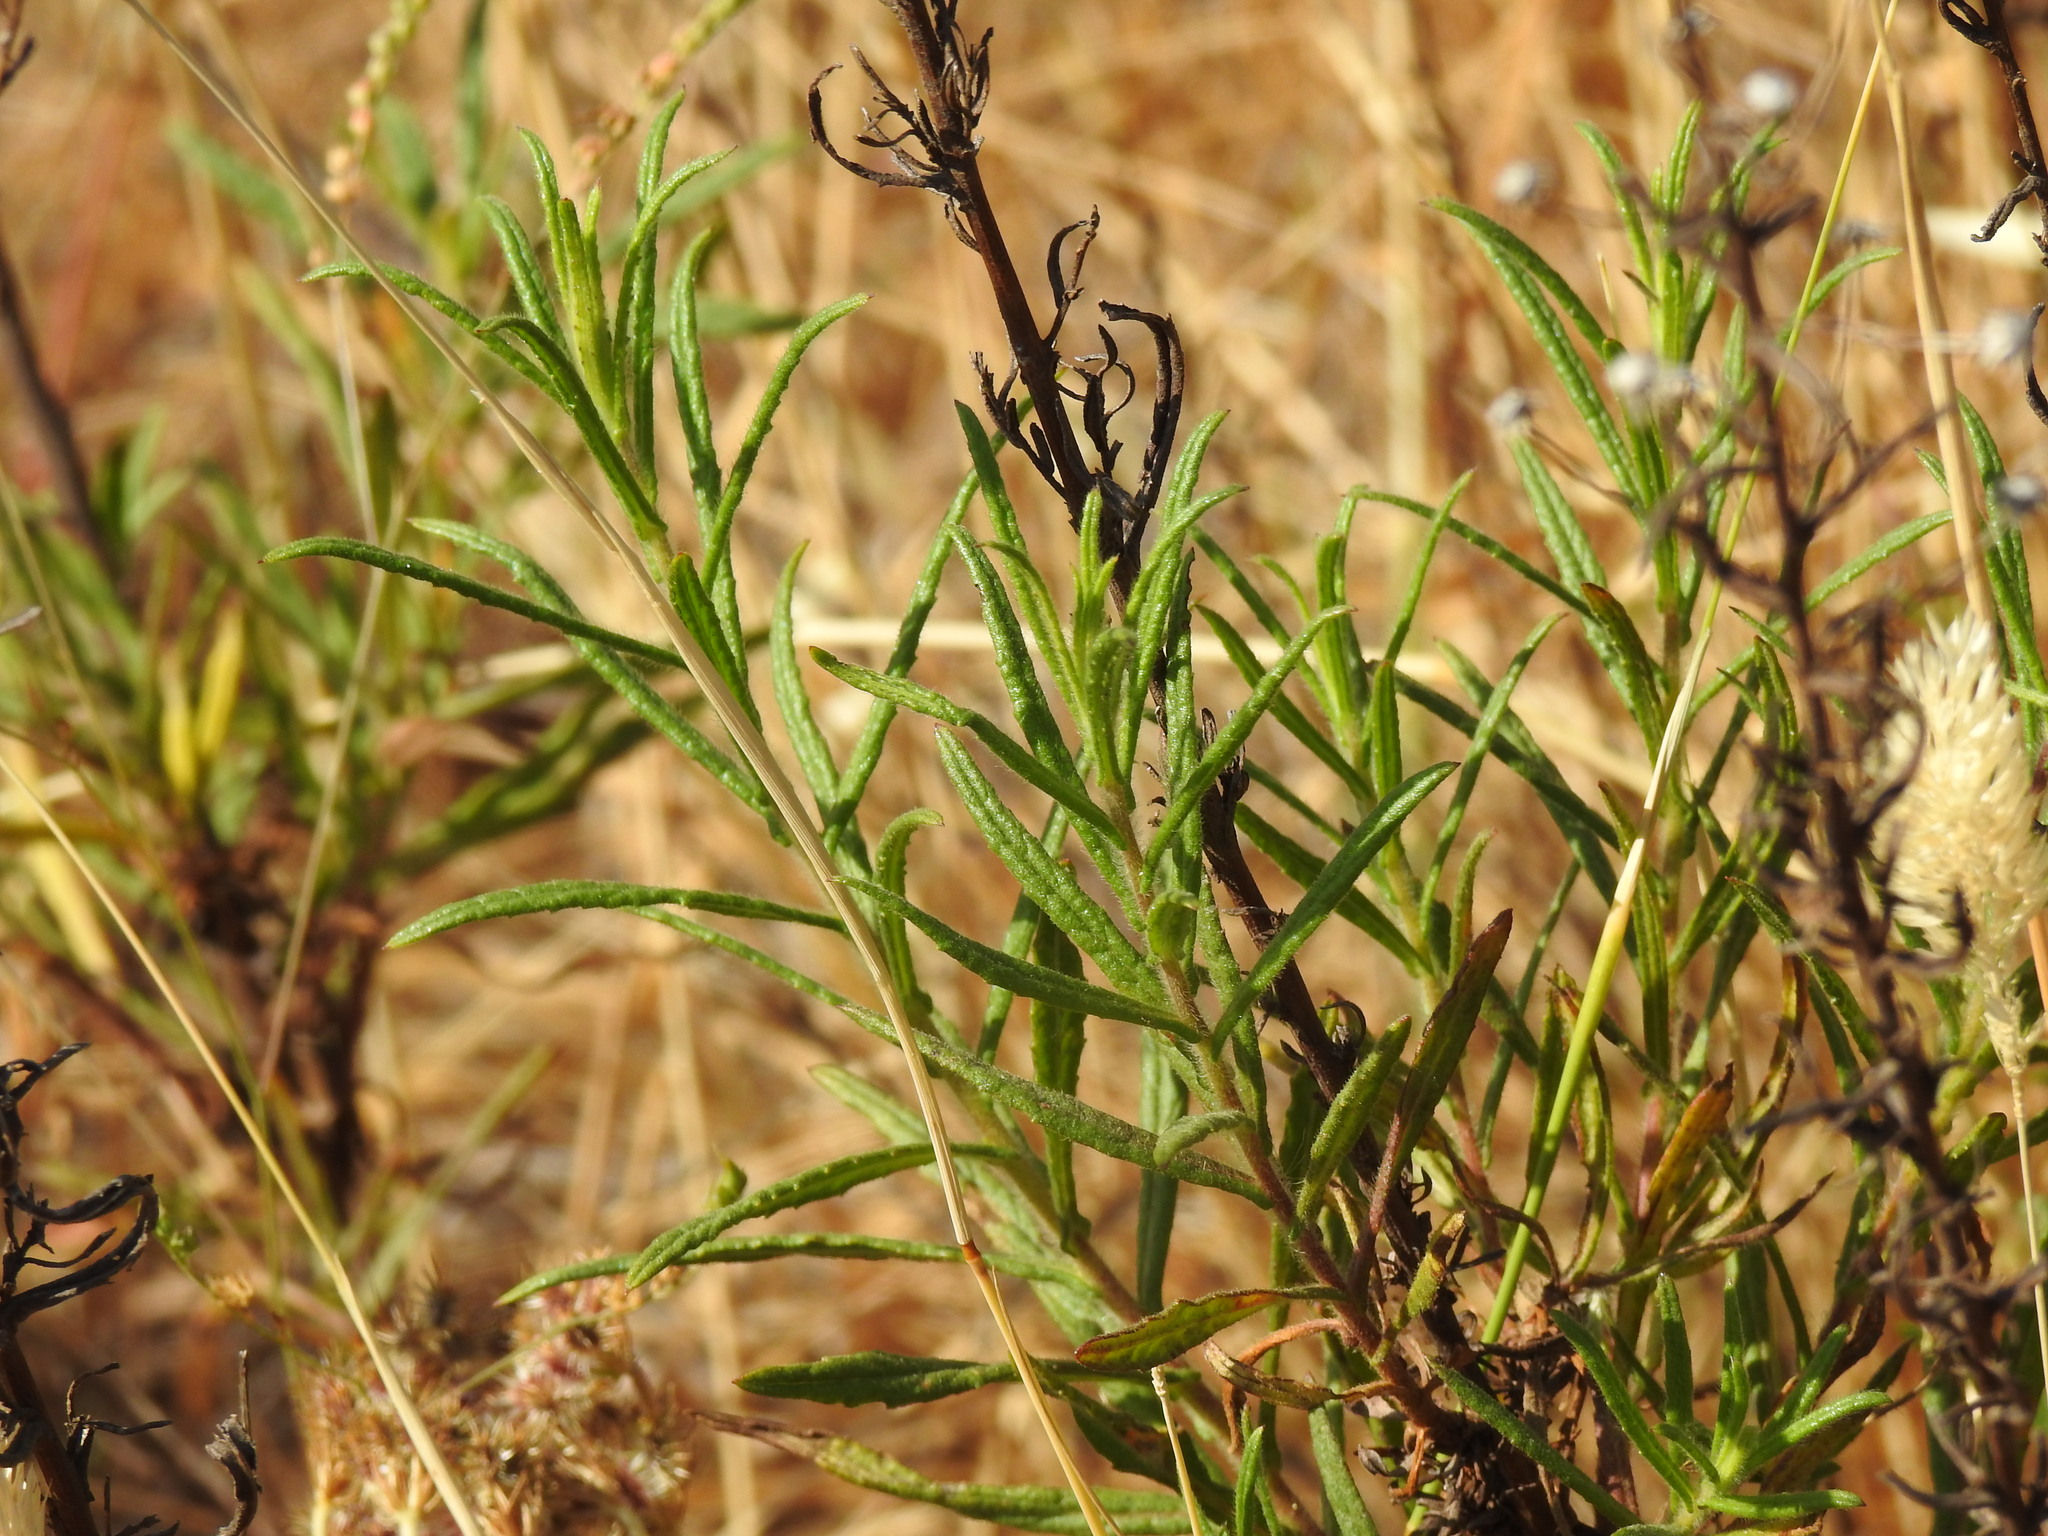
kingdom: Plantae
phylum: Tracheophyta
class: Magnoliopsida
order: Asterales
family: Asteraceae
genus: Dittrichia
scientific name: Dittrichia viscosa
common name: Woody fleabane
